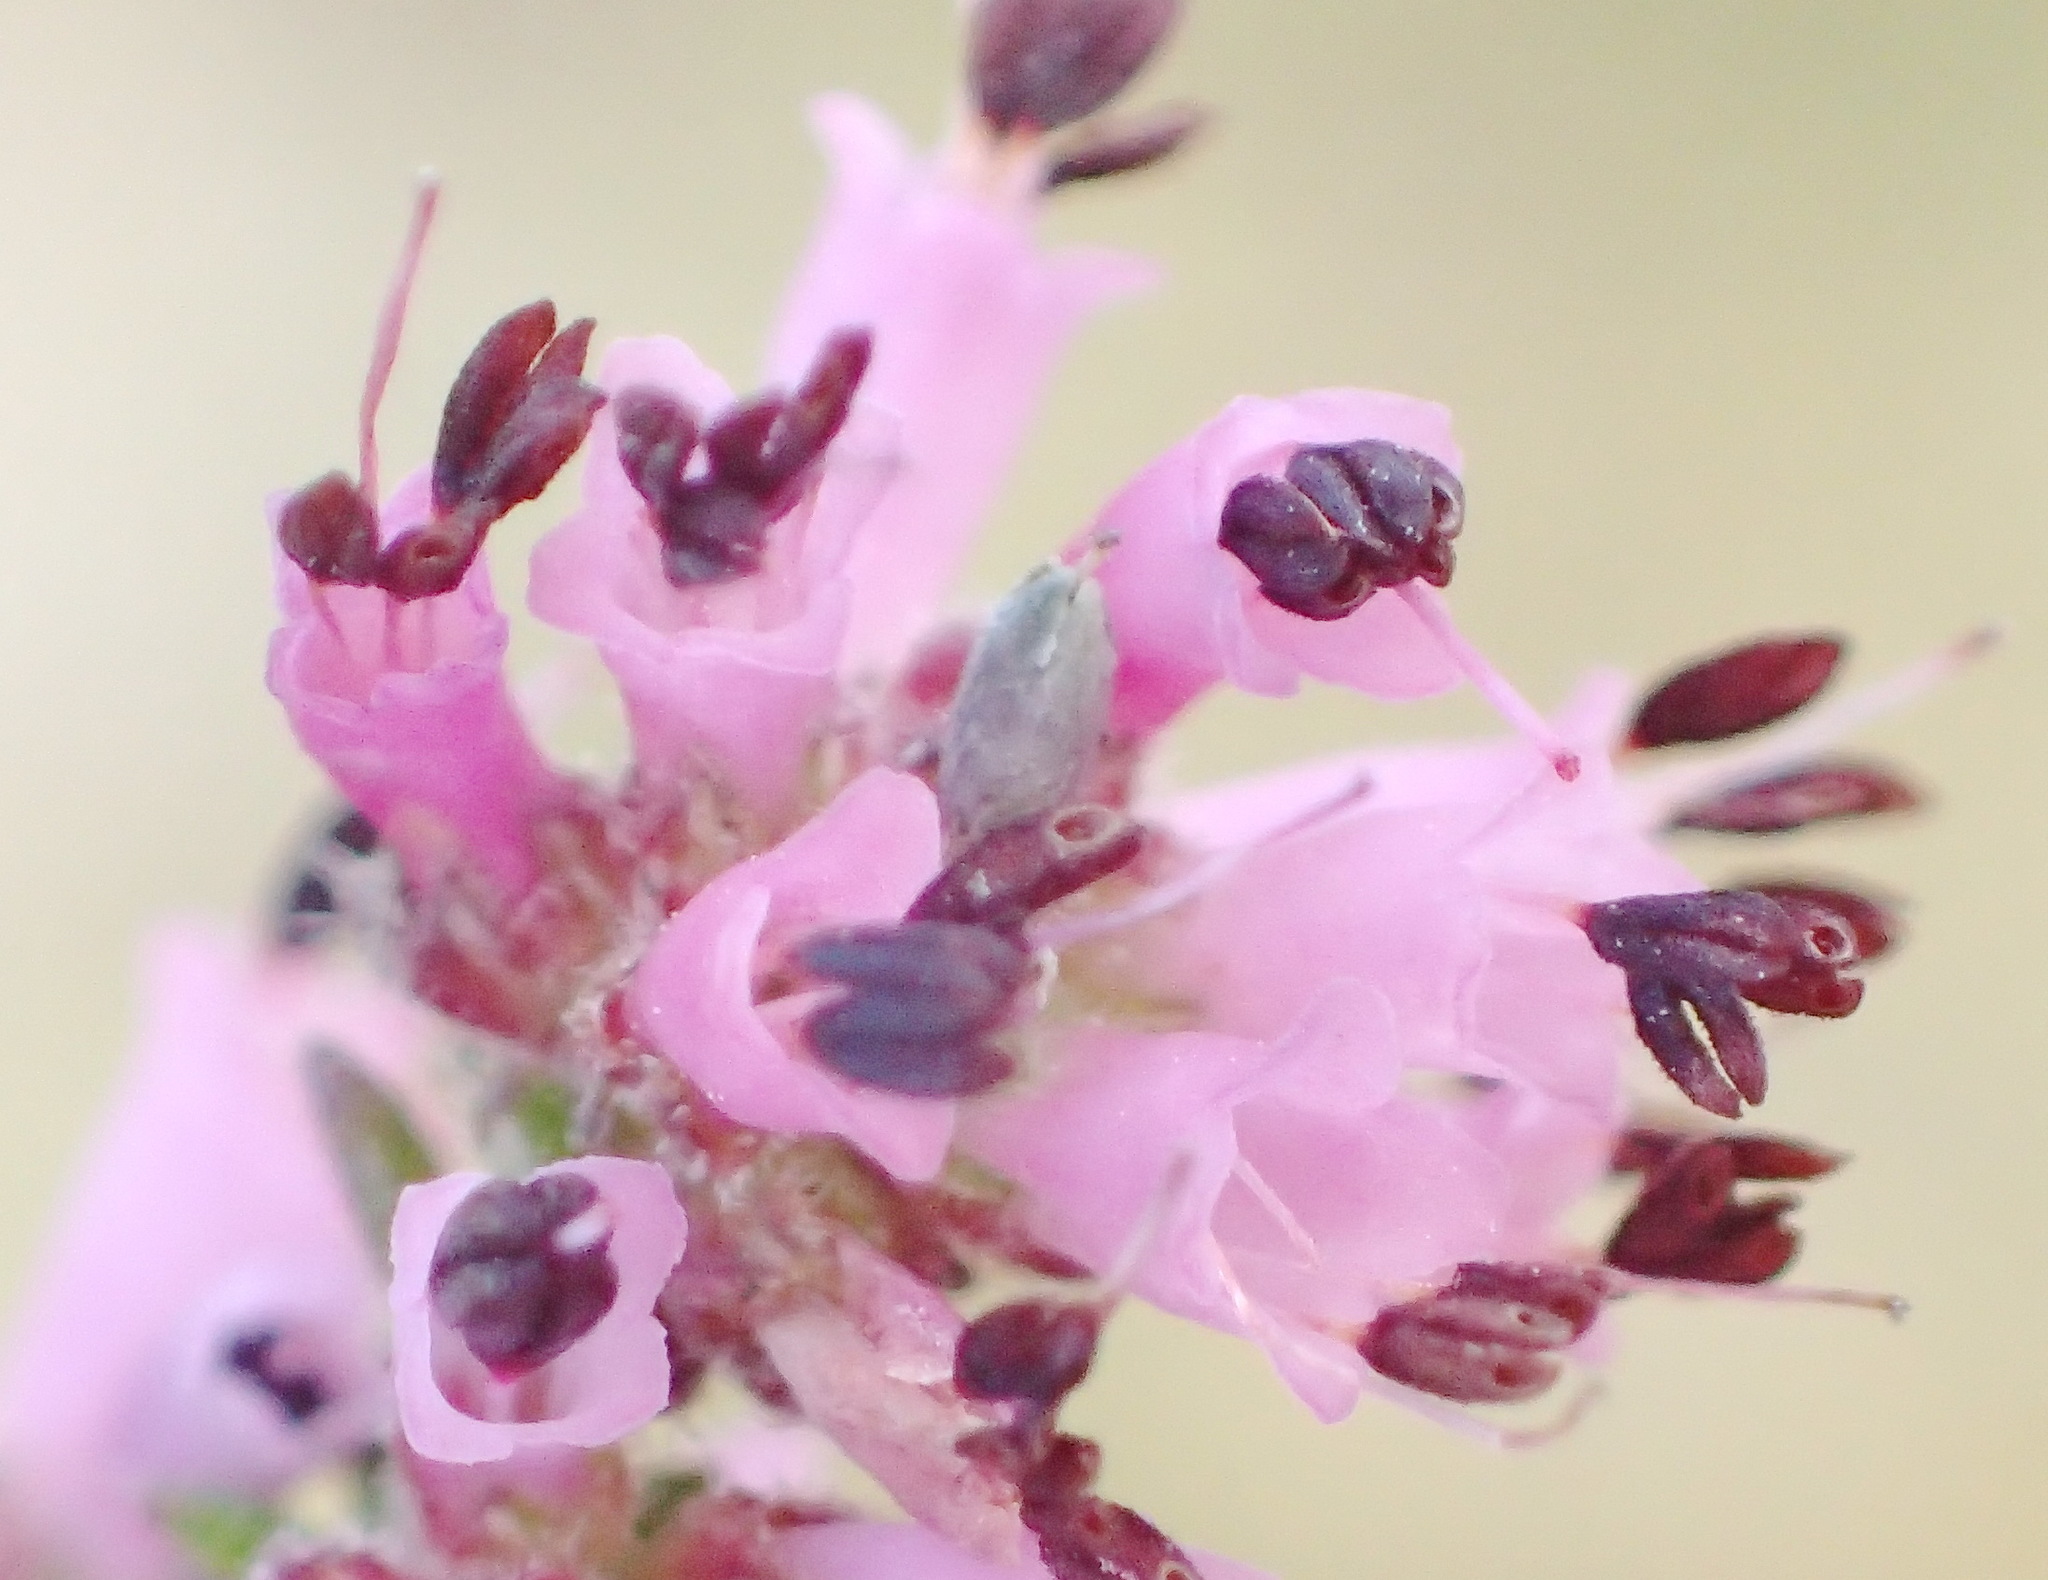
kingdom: Plantae
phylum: Tracheophyta
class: Magnoliopsida
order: Ericales
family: Ericaceae
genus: Erica
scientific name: Erica radicans
